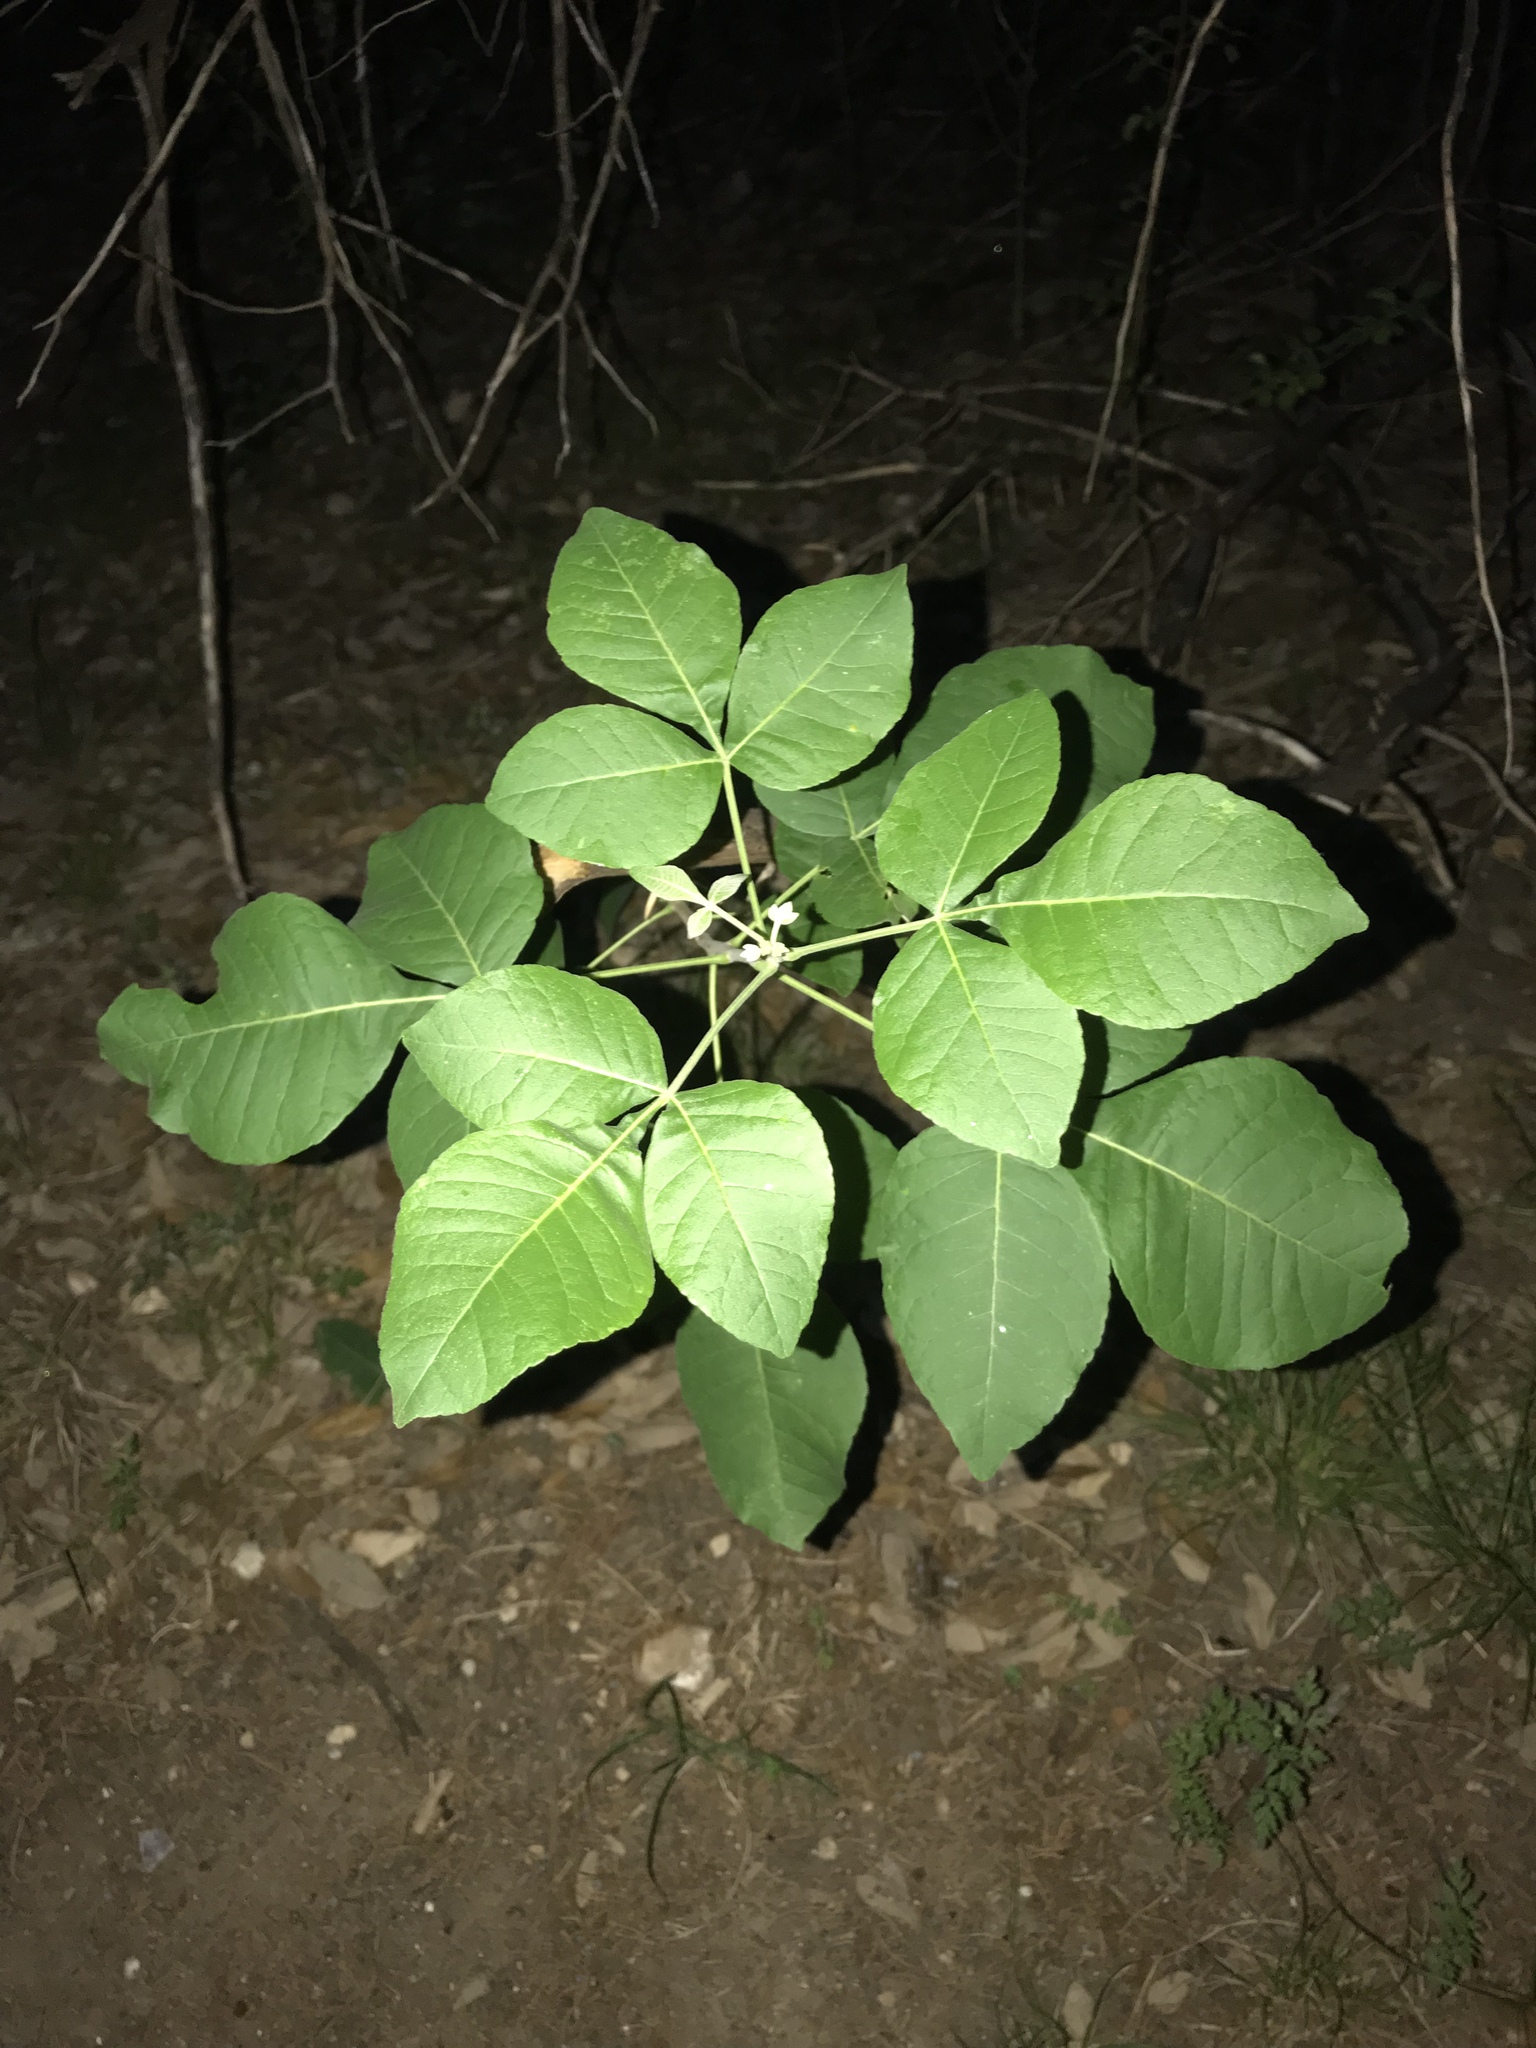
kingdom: Plantae
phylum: Tracheophyta
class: Magnoliopsida
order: Sapindales
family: Rutaceae
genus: Ptelea
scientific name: Ptelea trifoliata
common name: Common hop-tree
